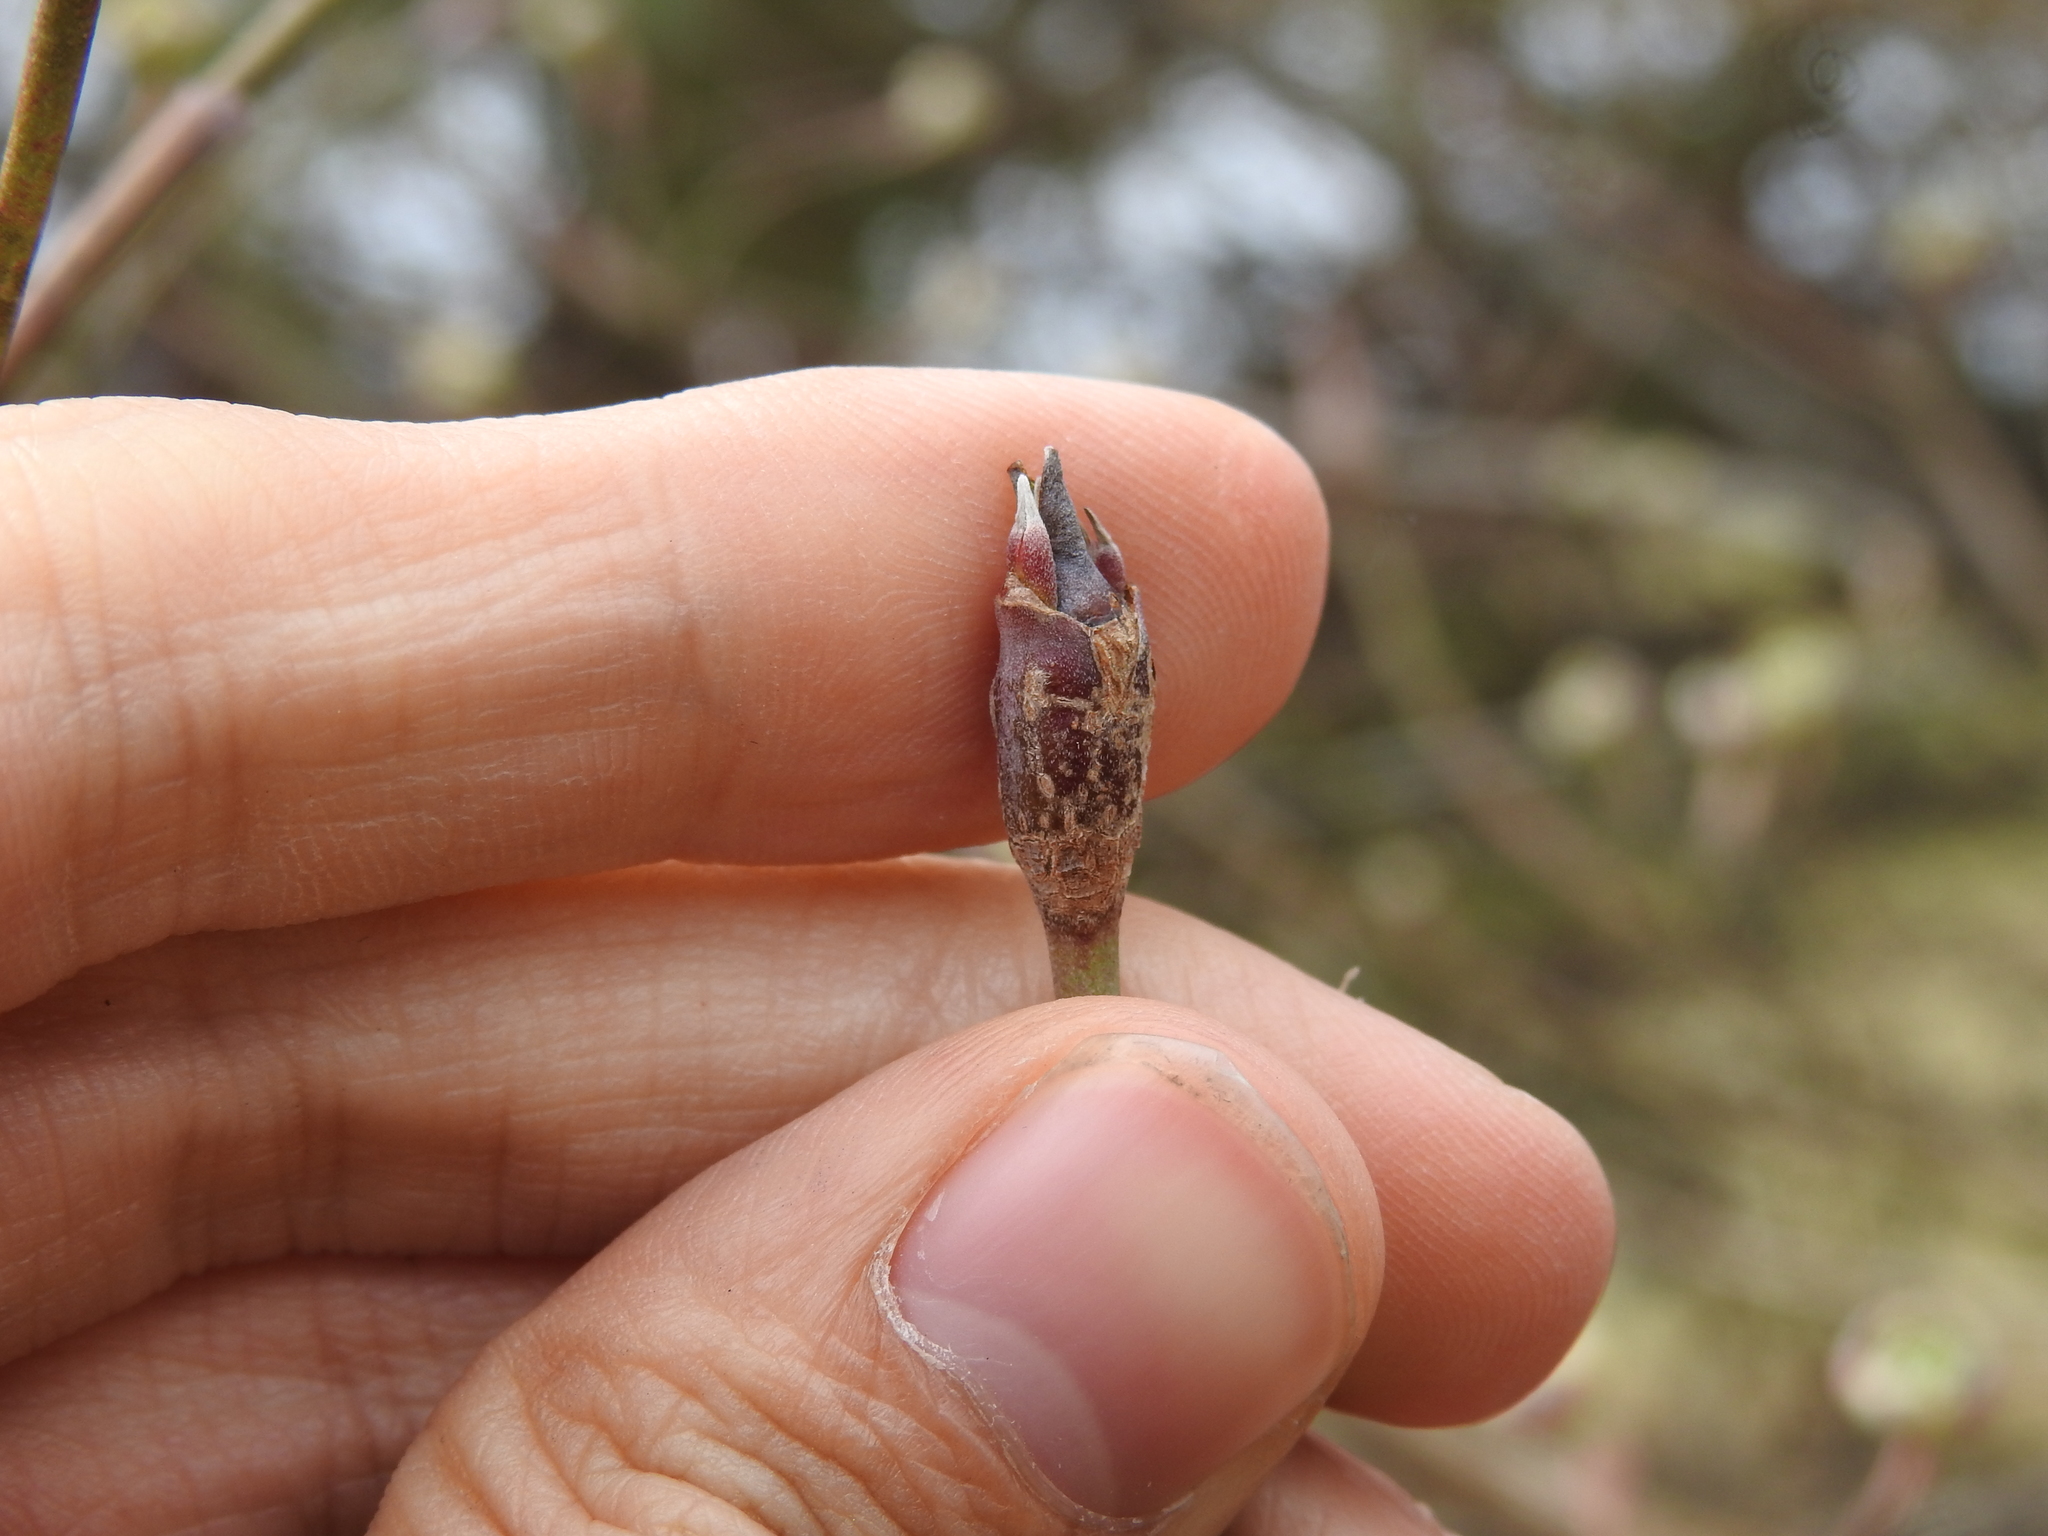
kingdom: Plantae
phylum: Tracheophyta
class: Magnoliopsida
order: Cornales
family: Cornaceae
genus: Cornus
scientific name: Cornus florida
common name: Flowering dogwood
